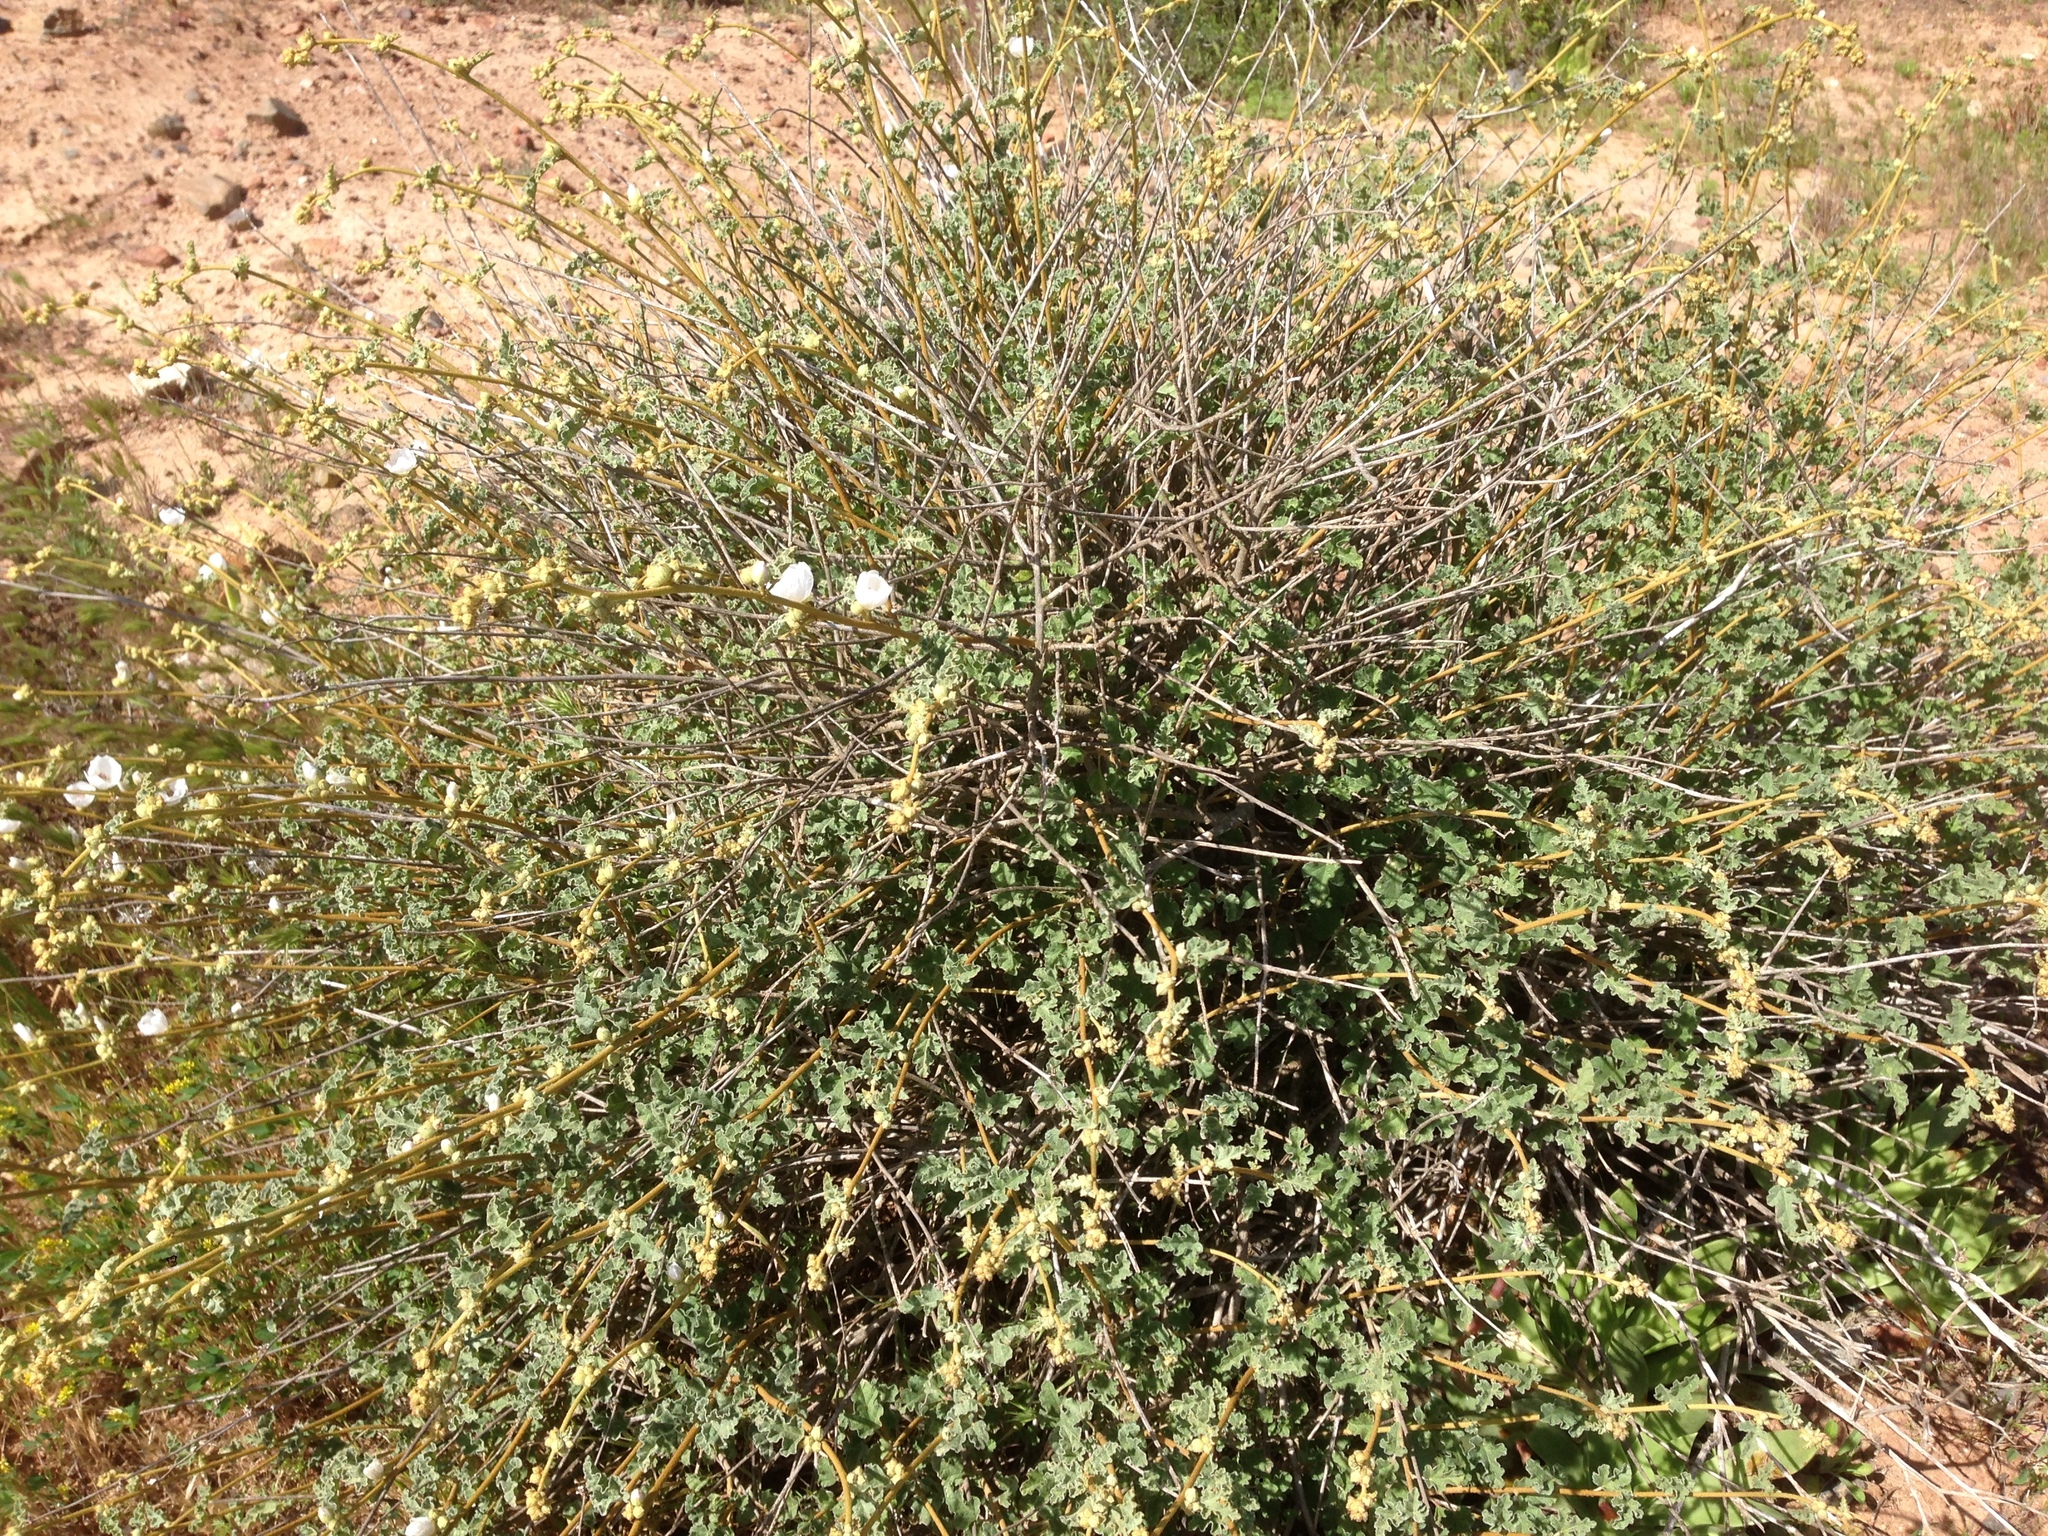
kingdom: Plantae
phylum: Tracheophyta
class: Magnoliopsida
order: Malvales
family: Malvaceae
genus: Sphaeralcea
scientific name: Sphaeralcea fulva
